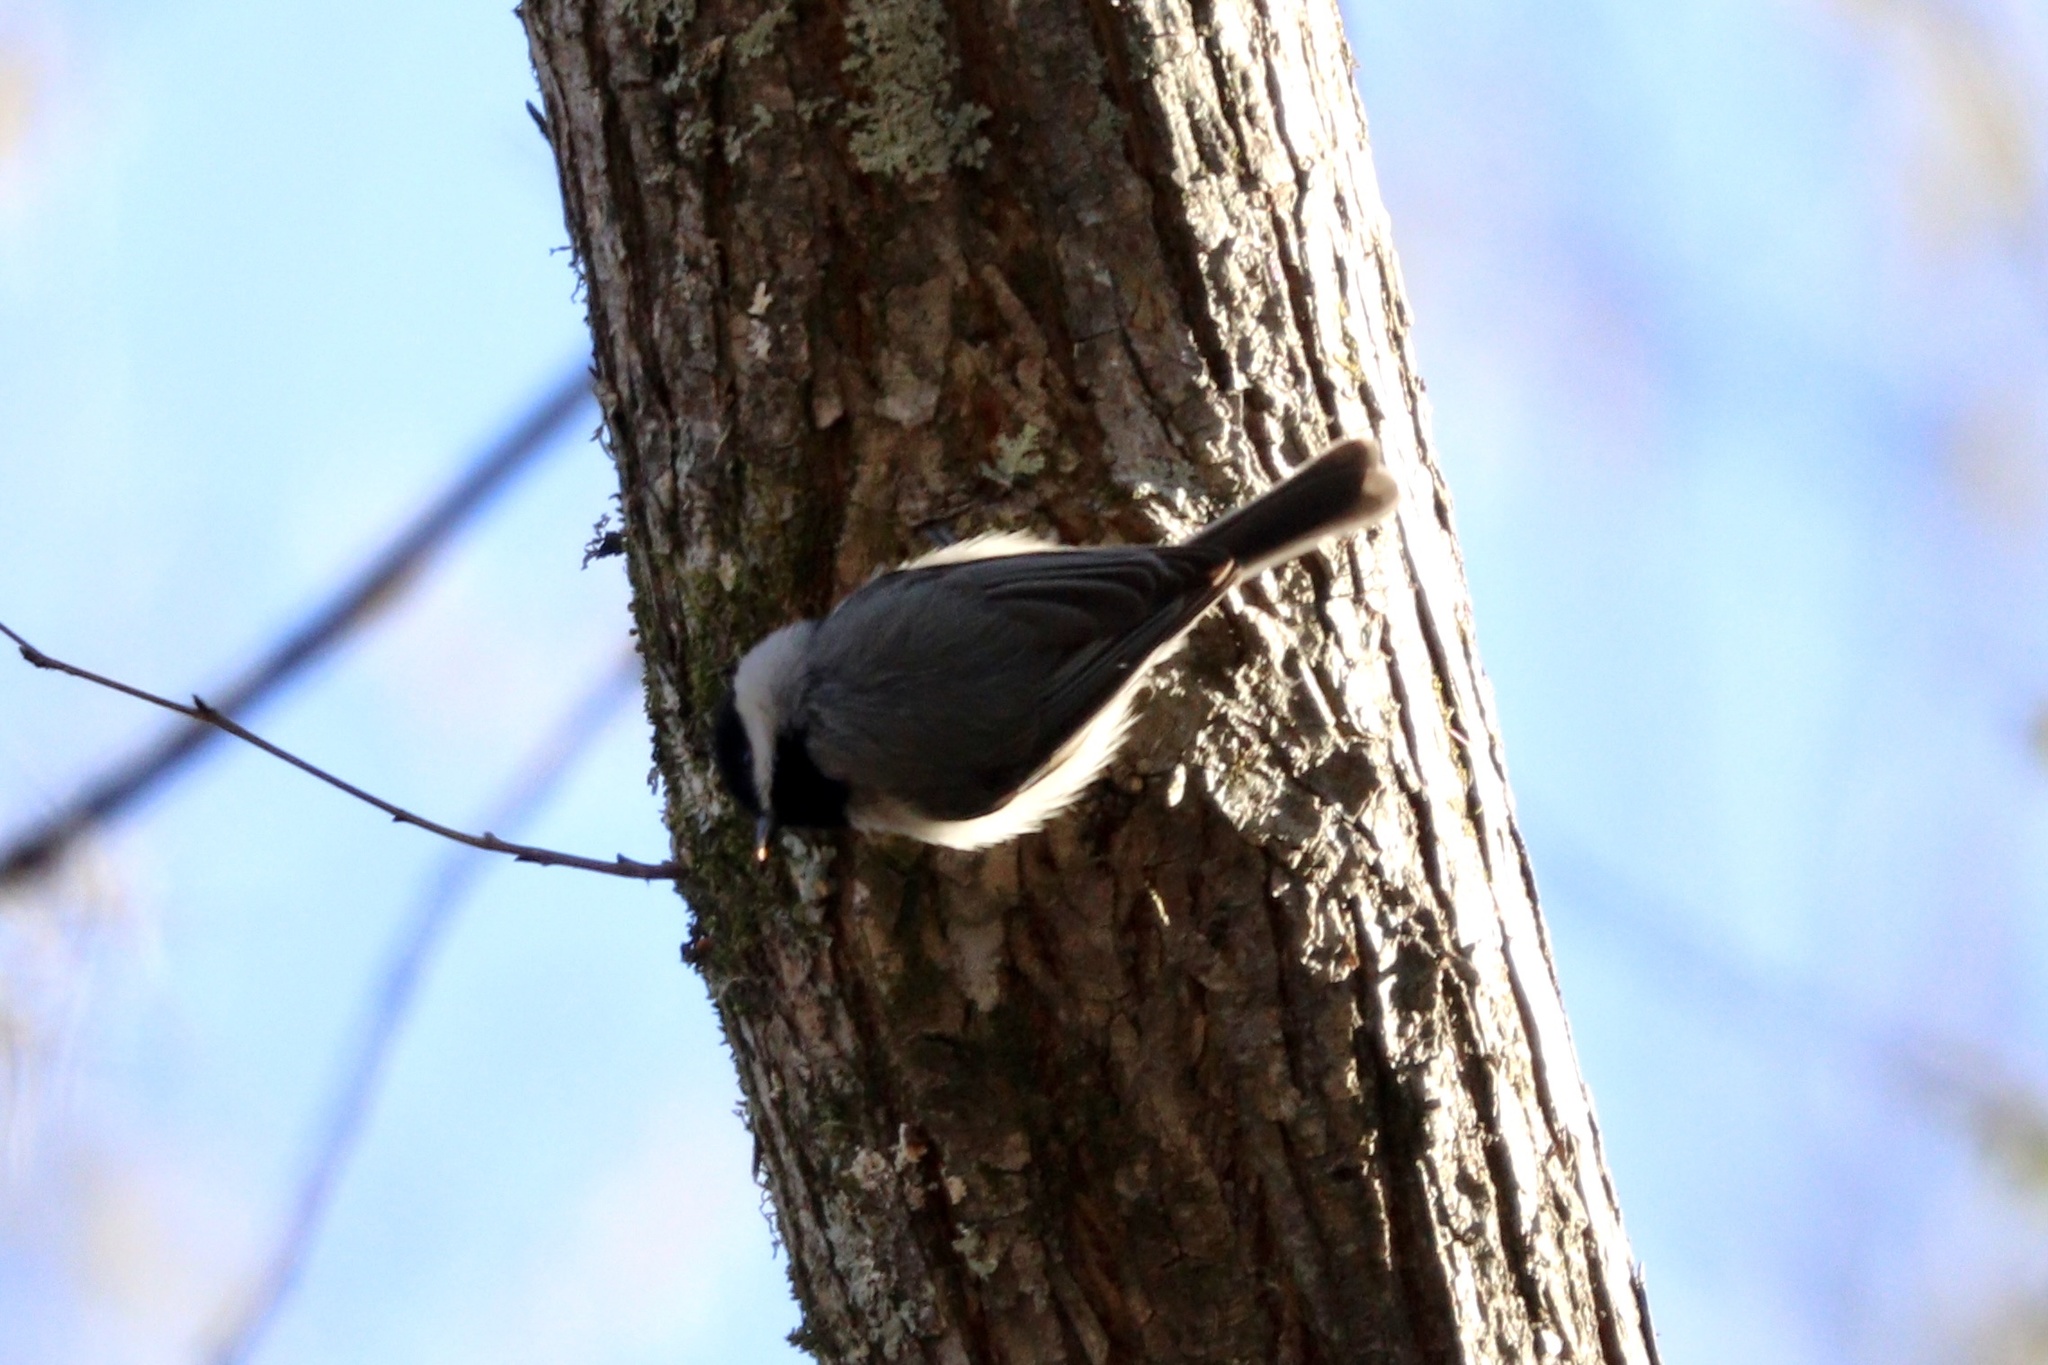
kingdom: Animalia
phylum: Chordata
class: Aves
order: Passeriformes
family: Paridae
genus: Poecile
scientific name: Poecile carolinensis
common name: Carolina chickadee
